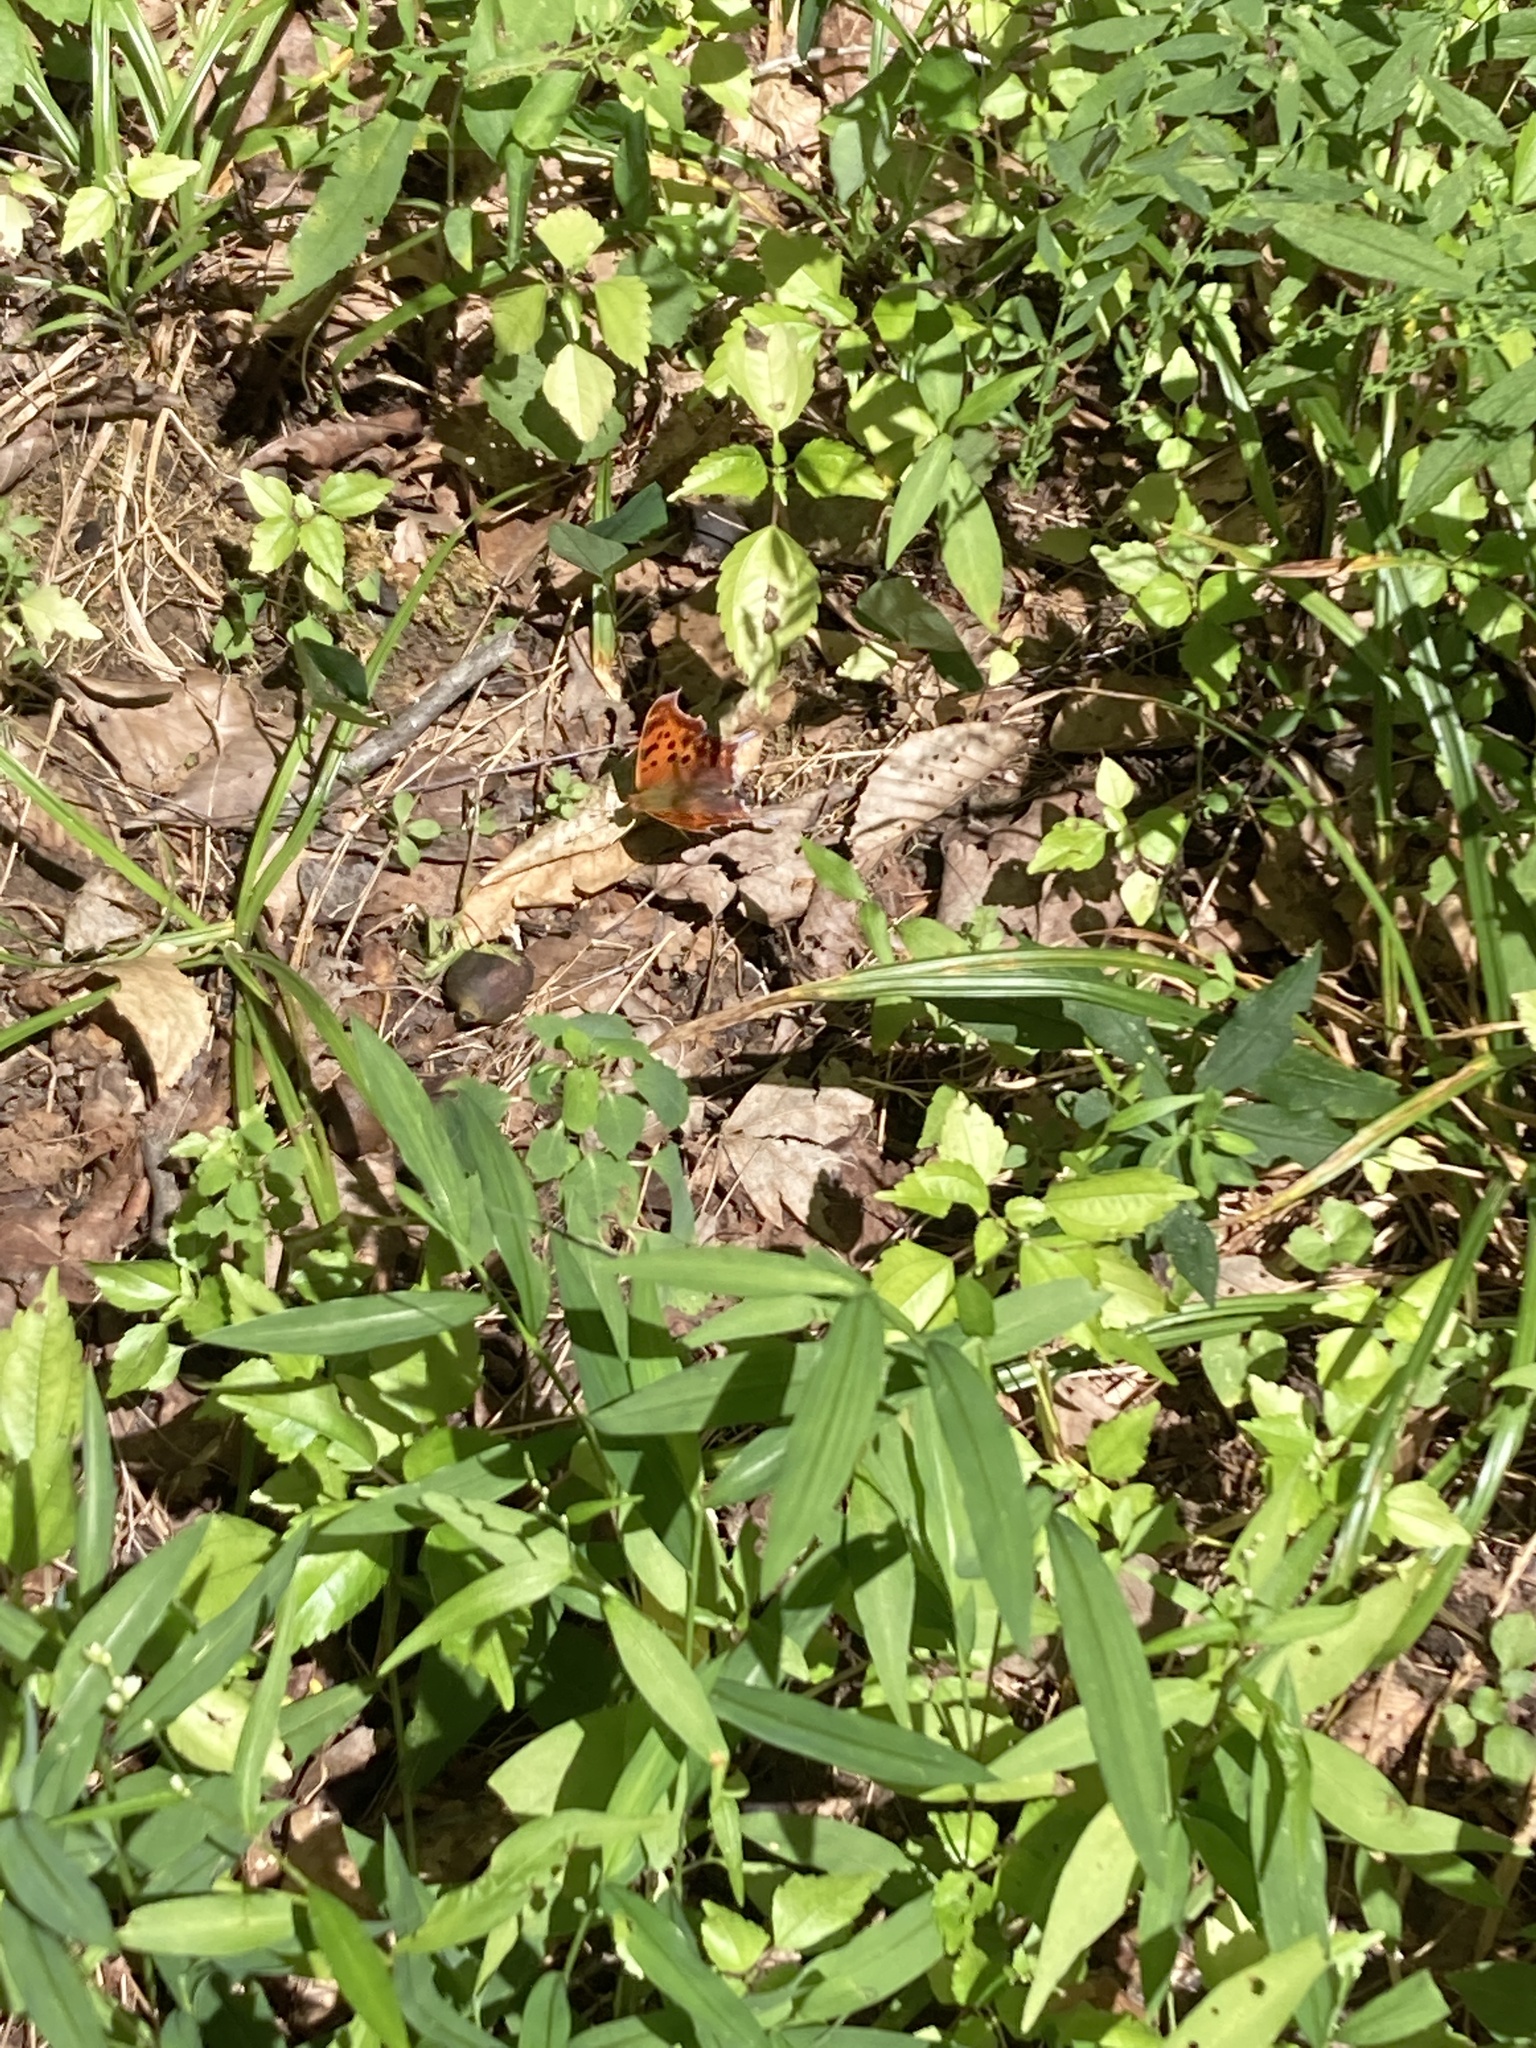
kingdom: Animalia
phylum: Arthropoda
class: Insecta
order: Lepidoptera
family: Nymphalidae
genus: Polygonia
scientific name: Polygonia interrogationis
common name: Question mark
